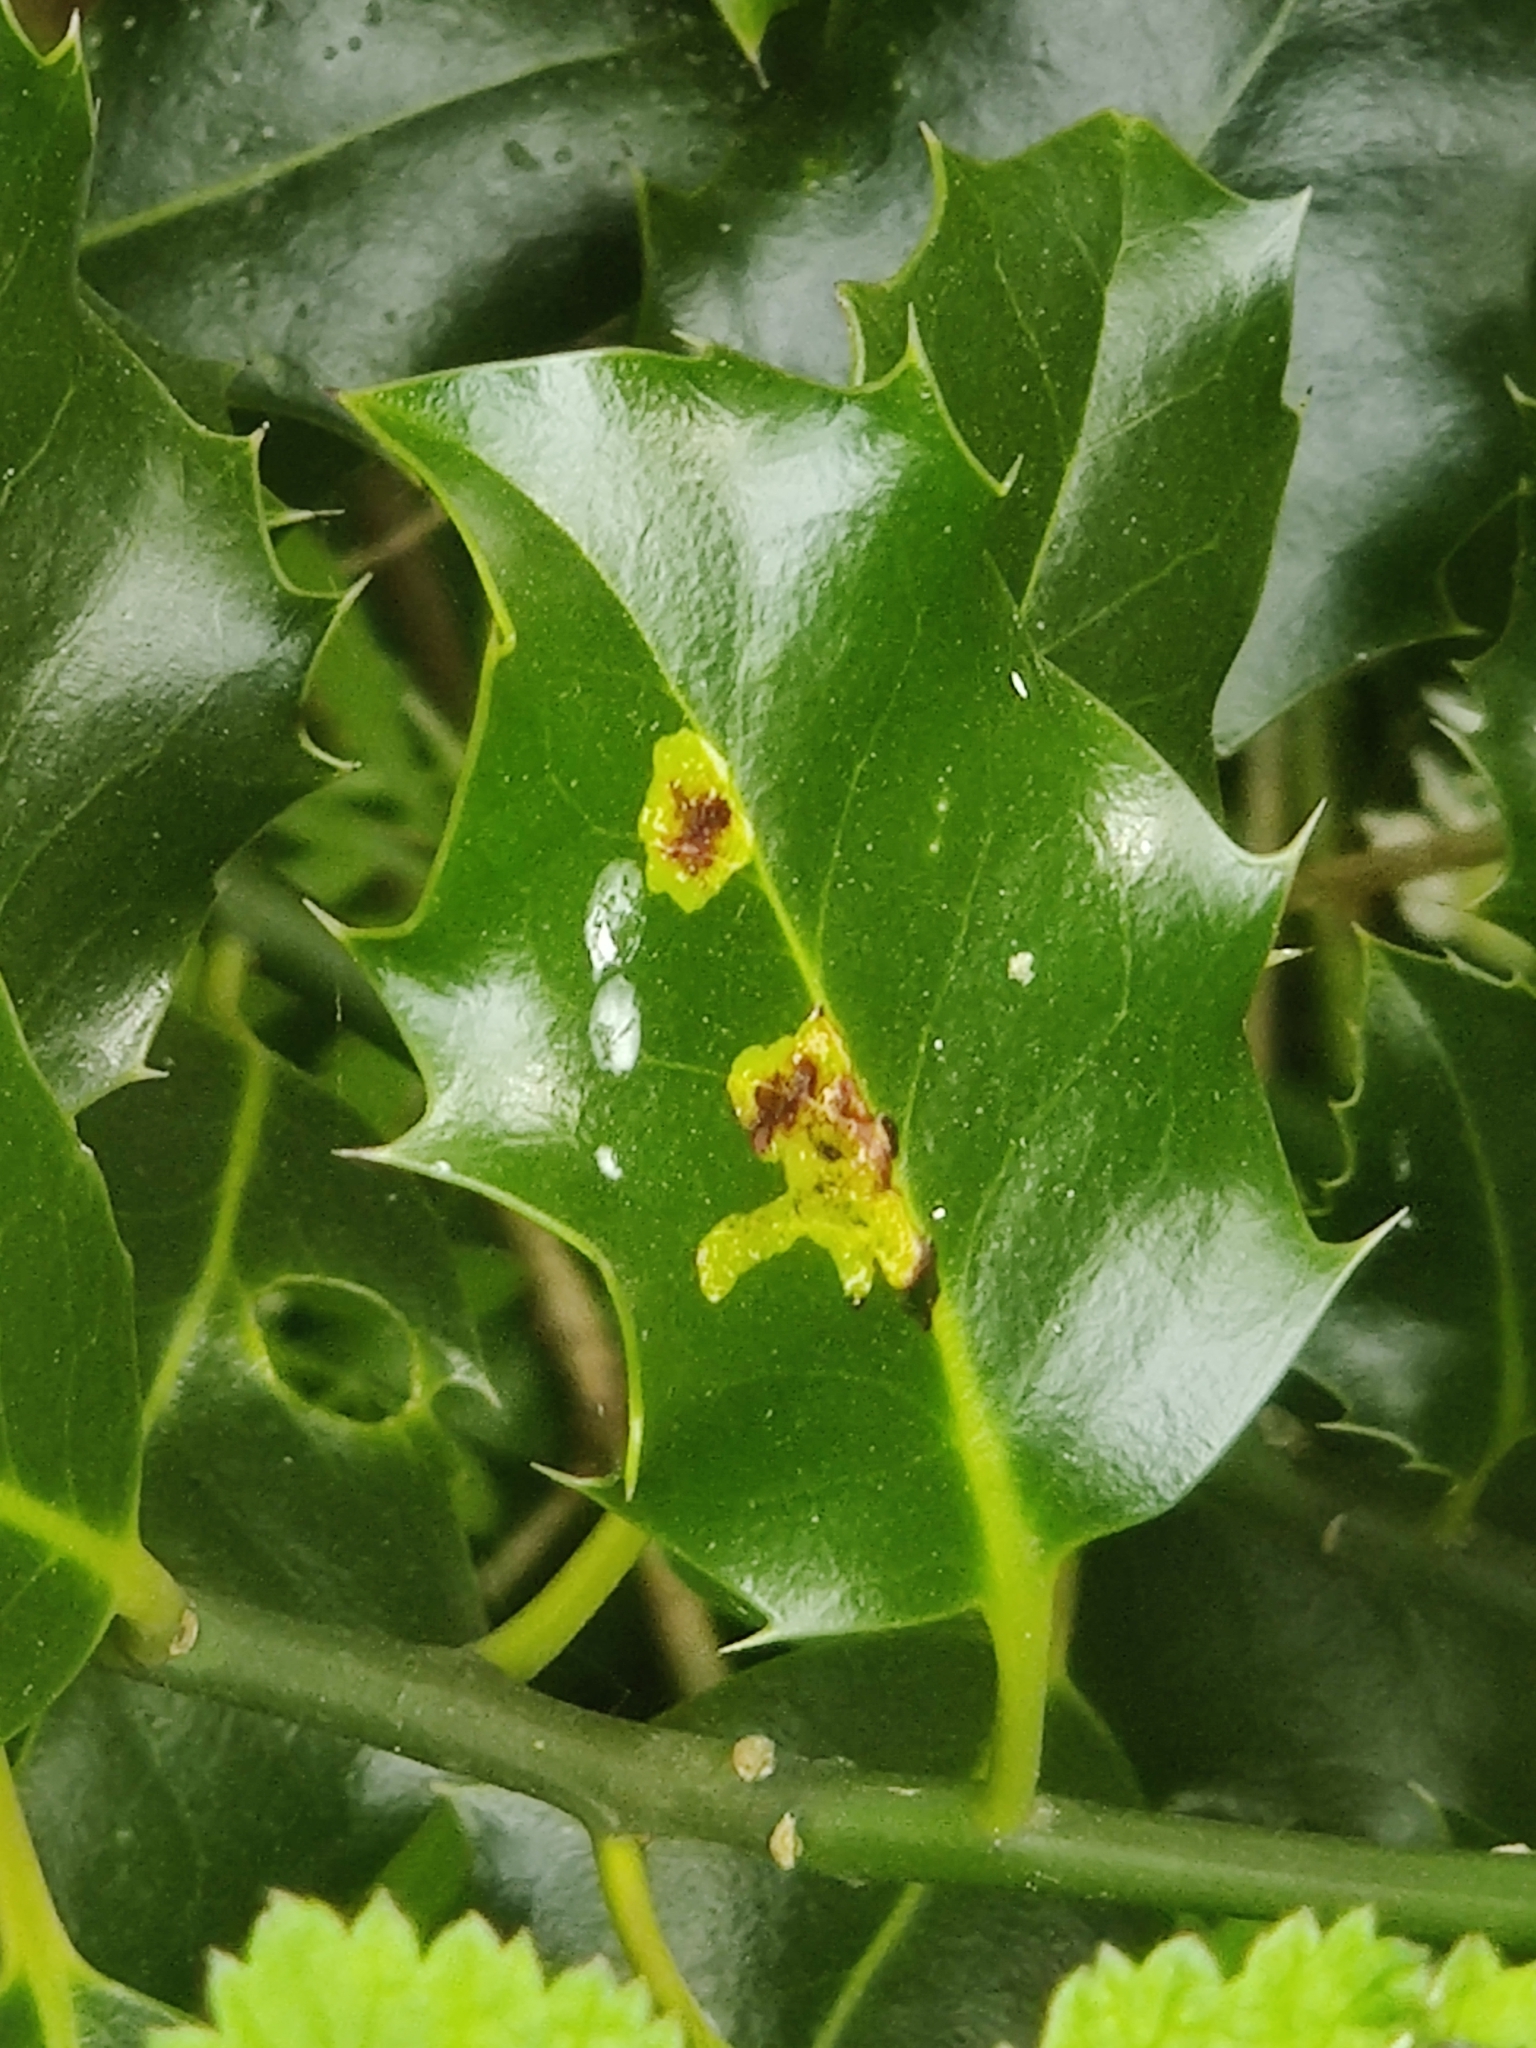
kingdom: Animalia
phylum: Arthropoda
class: Insecta
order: Diptera
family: Agromyzidae
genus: Phytomyza
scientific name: Phytomyza ilicis
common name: Holly leafminer
